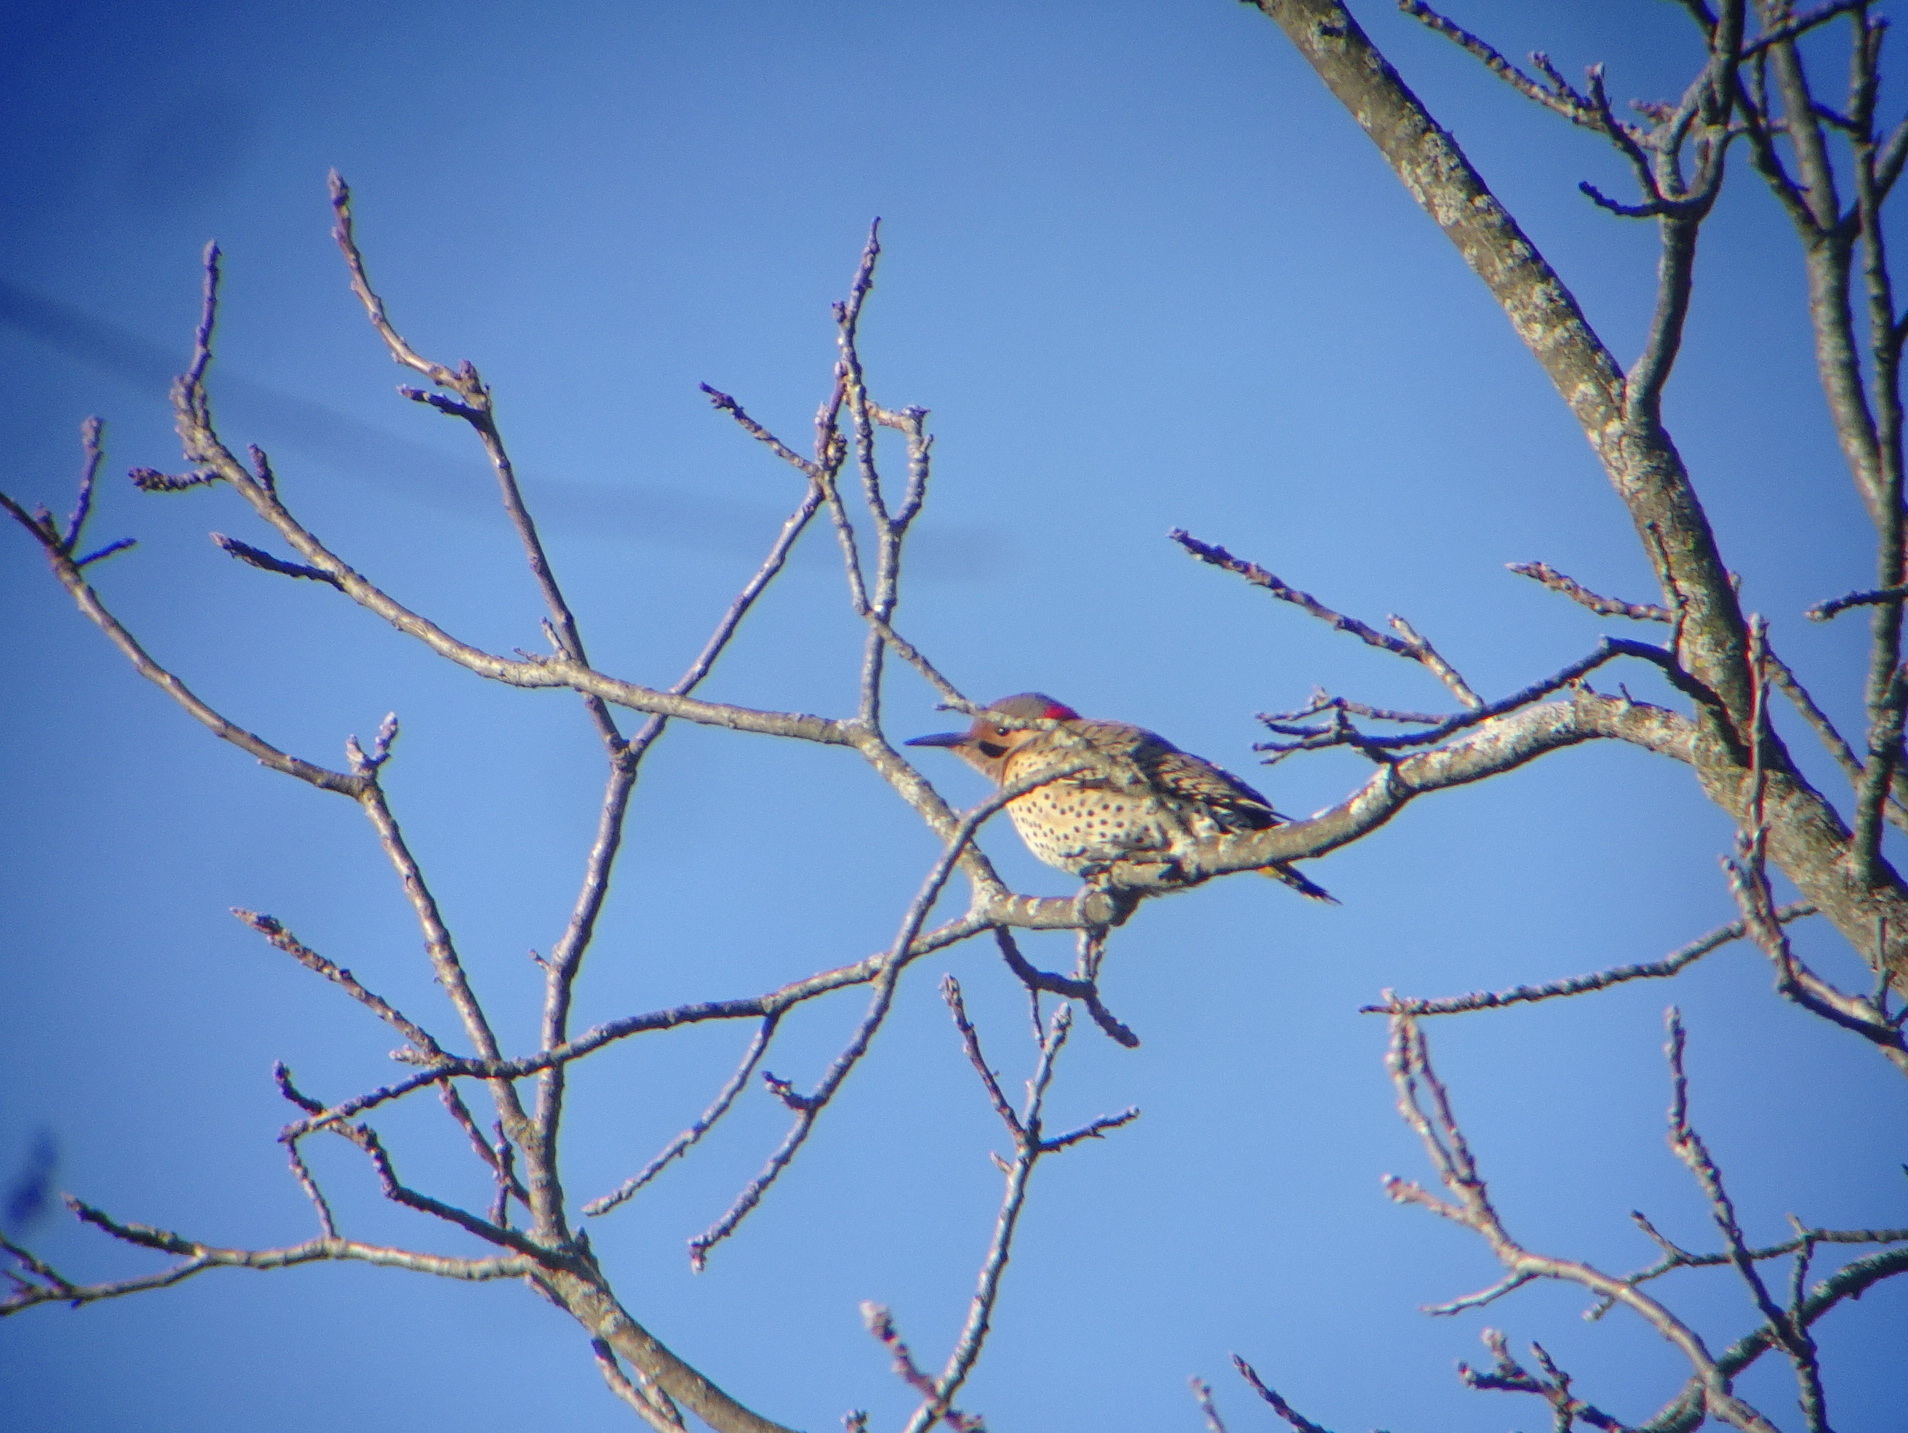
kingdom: Animalia
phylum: Chordata
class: Aves
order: Piciformes
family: Picidae
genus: Colaptes
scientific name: Colaptes auratus
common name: Northern flicker
